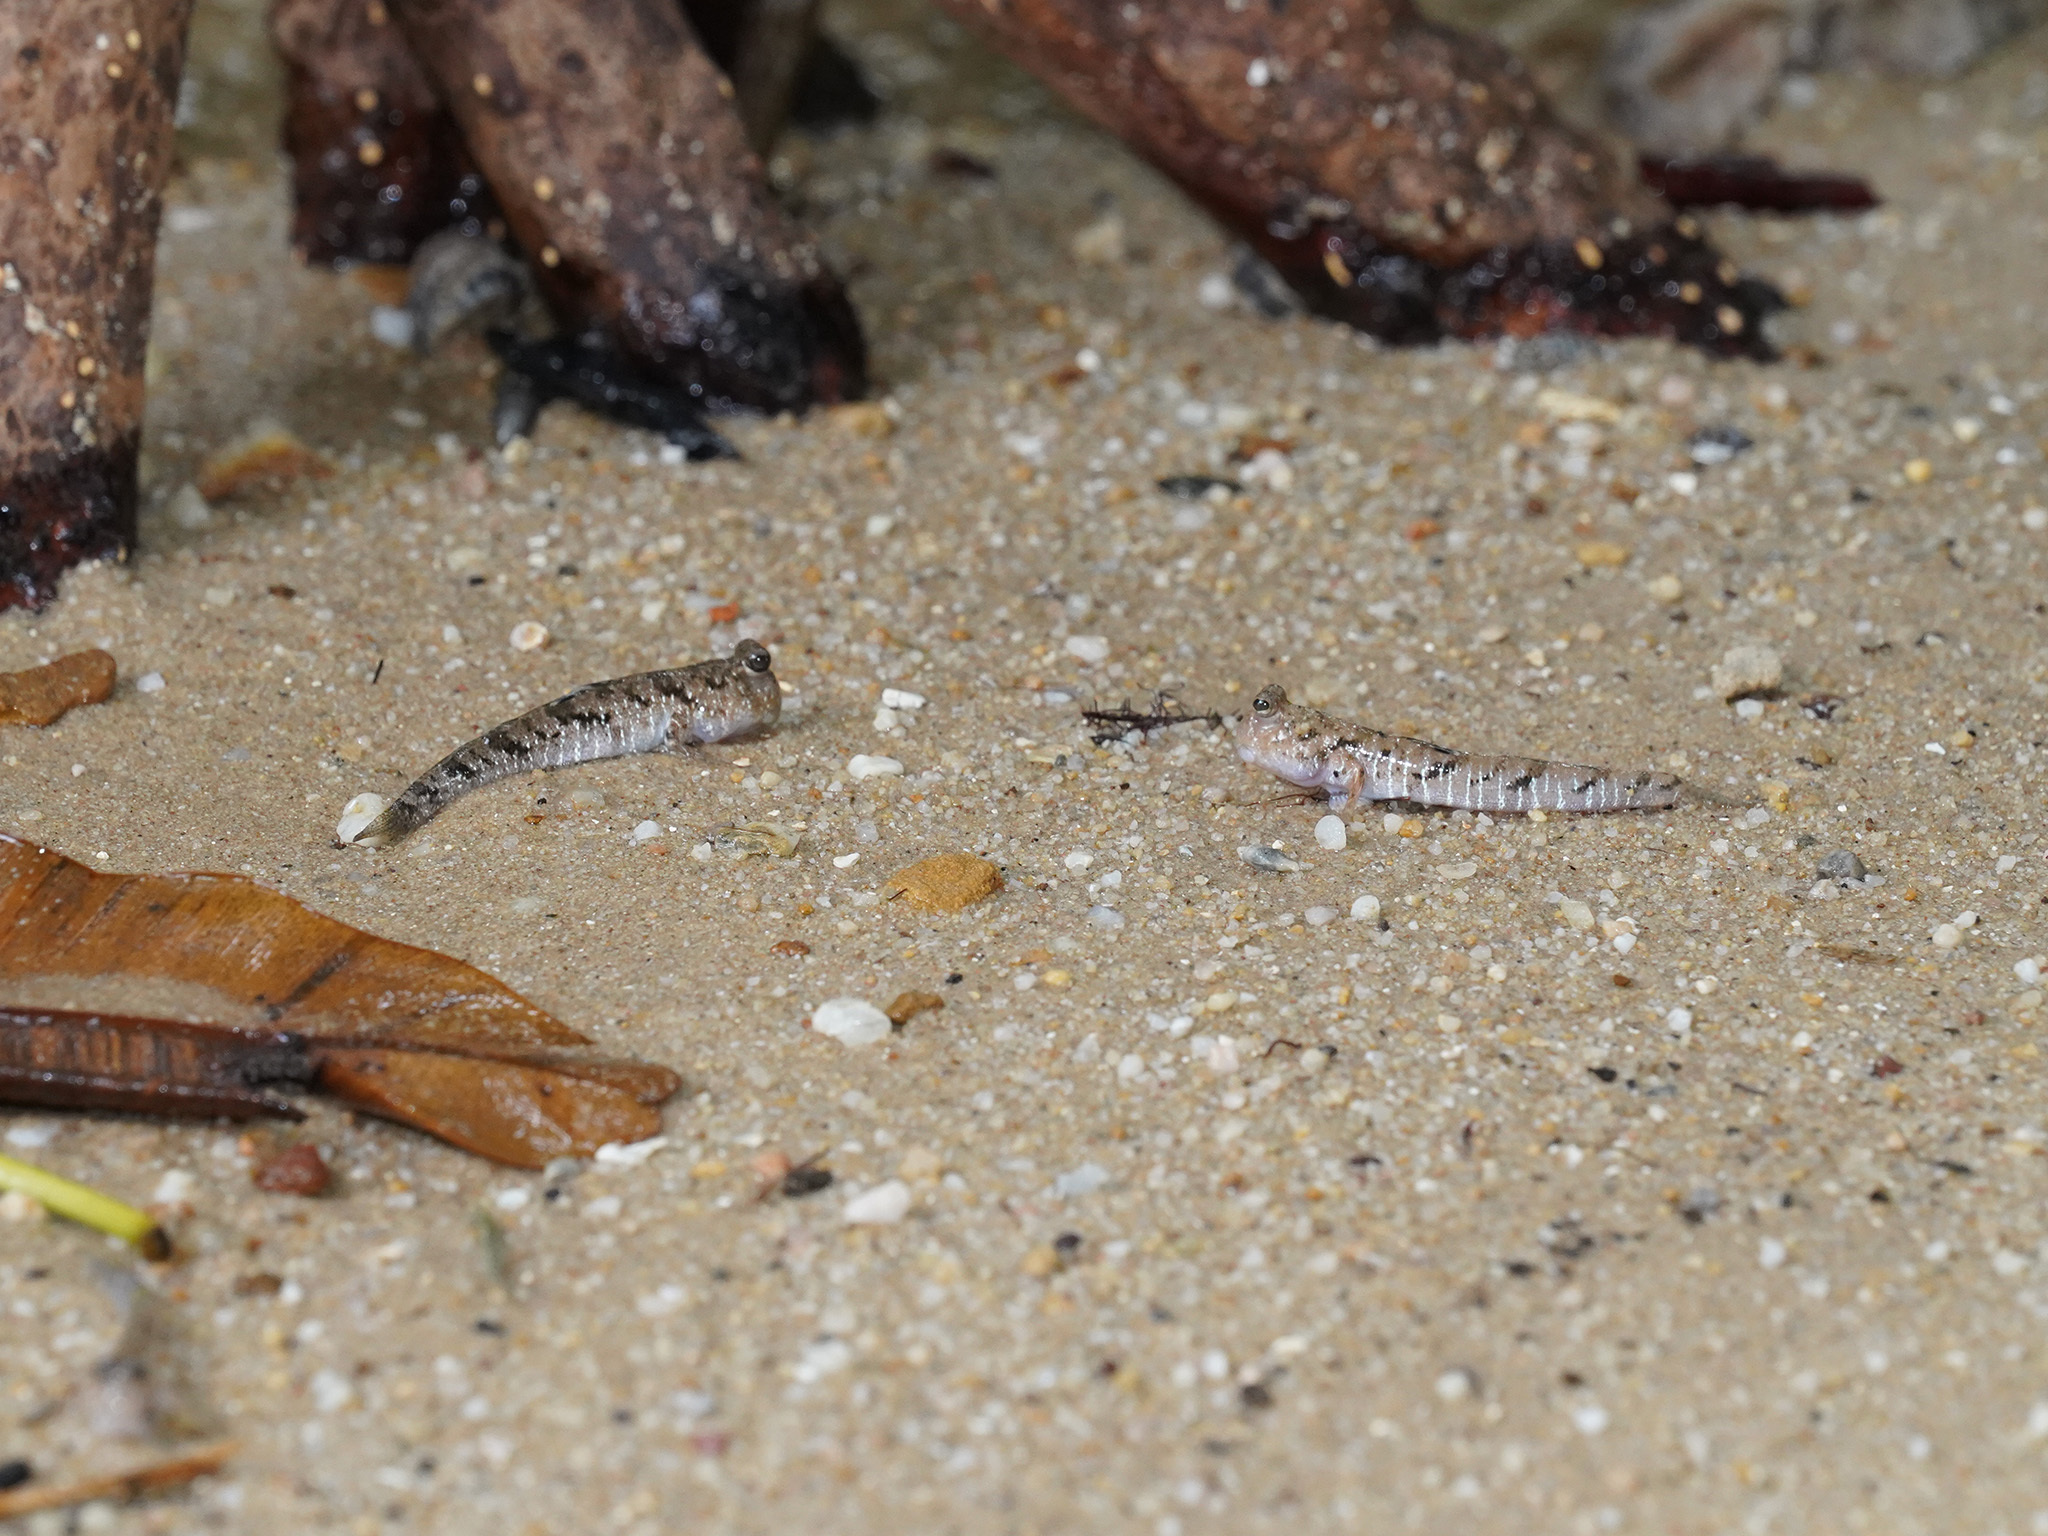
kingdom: Animalia
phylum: Chordata
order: Perciformes
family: Gobiidae
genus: Periophthalmus
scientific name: Periophthalmus argentilineatus
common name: Barred mudskipper
